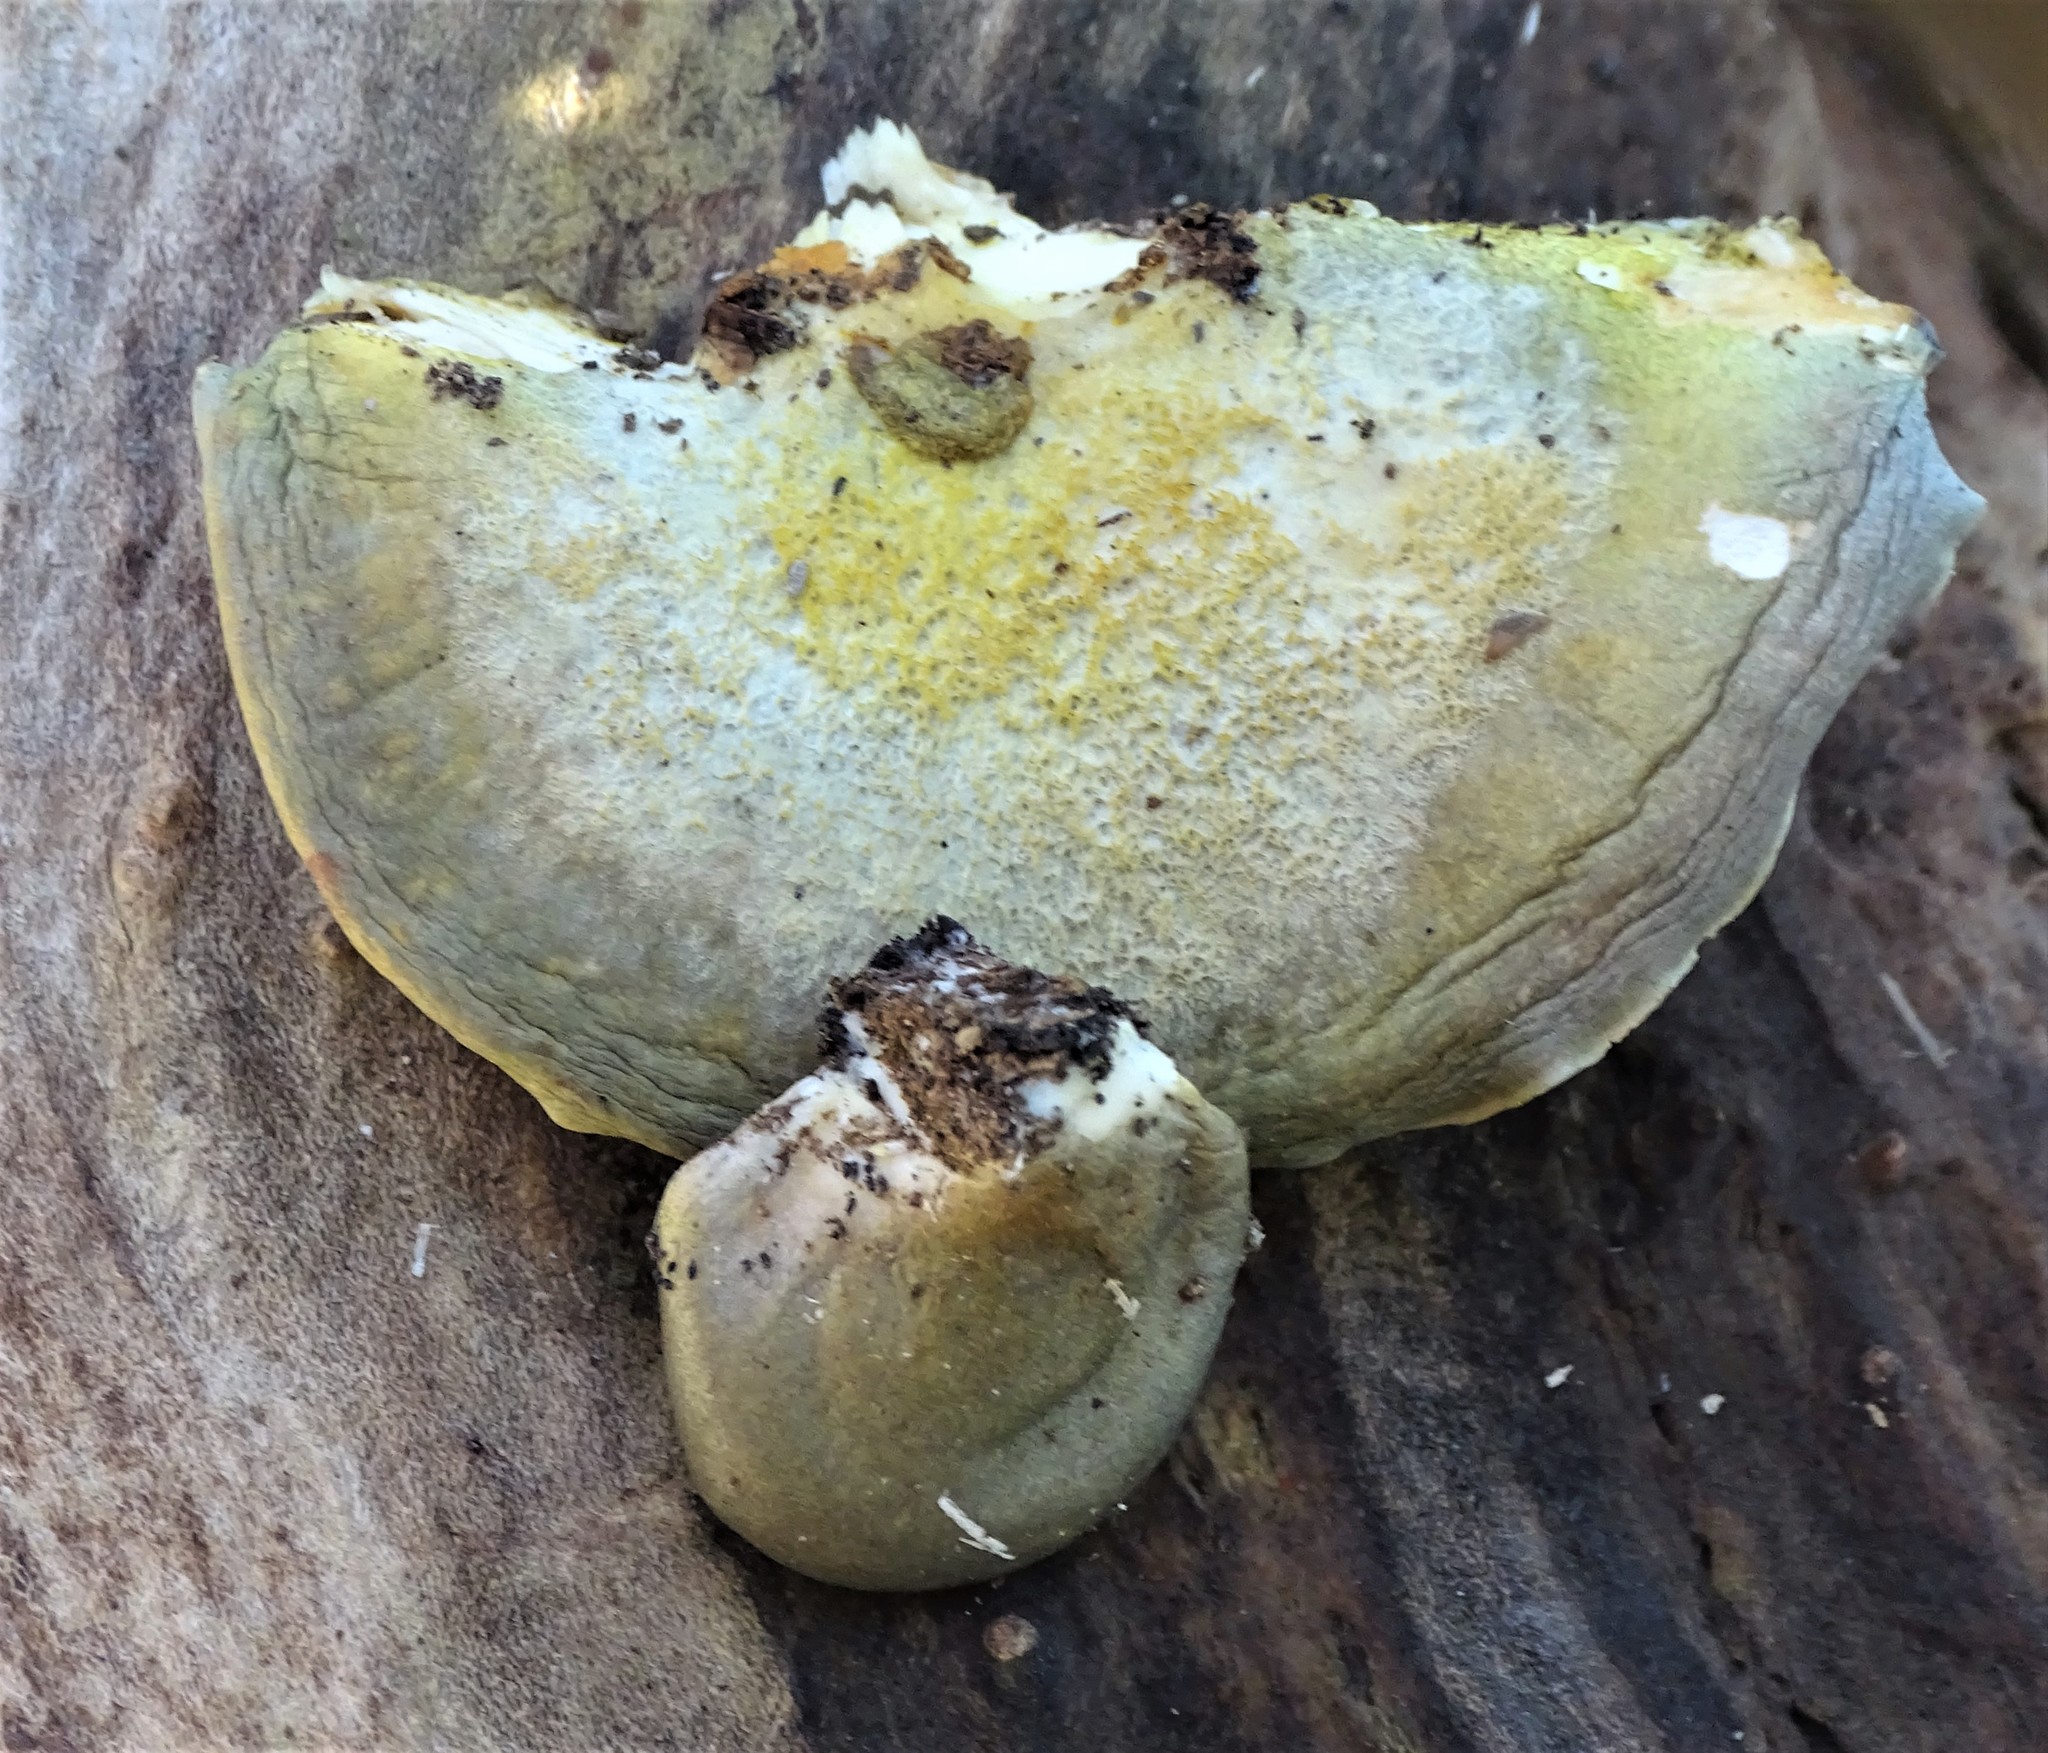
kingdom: Fungi
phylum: Basidiomycota
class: Agaricomycetes
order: Agaricales
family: Sarcomyxaceae
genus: Sarcomyxa
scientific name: Sarcomyxa serotina
